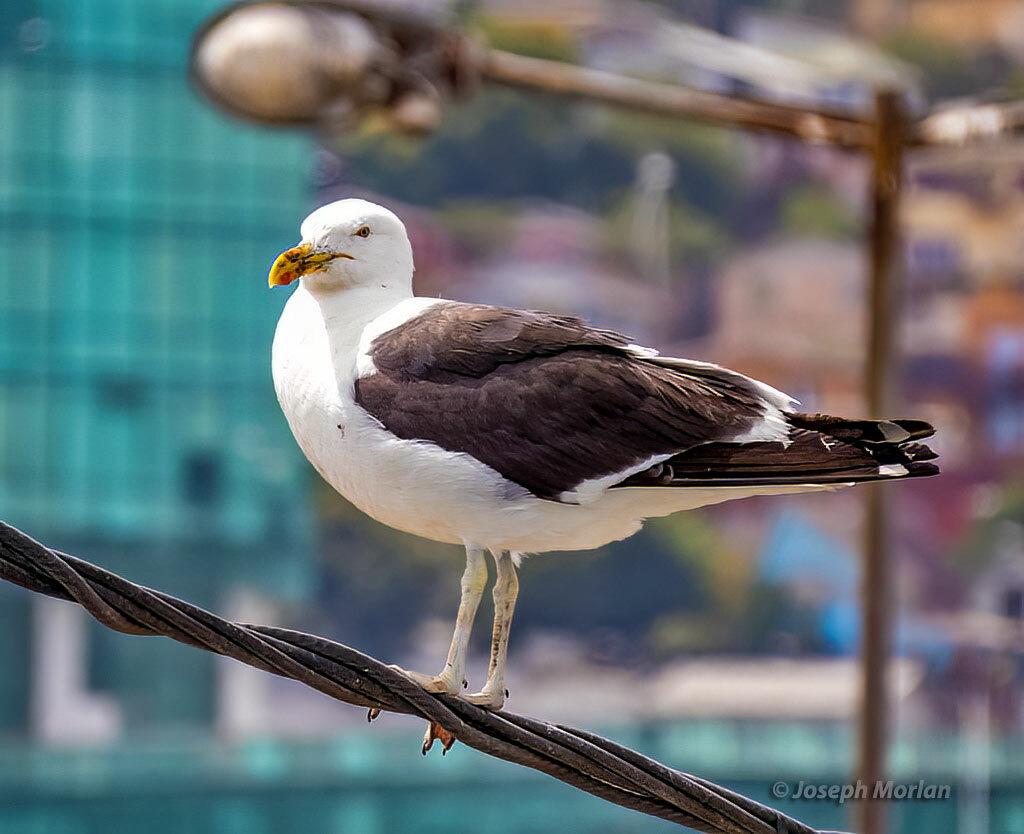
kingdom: Animalia
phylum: Chordata
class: Aves
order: Charadriiformes
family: Laridae
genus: Larus
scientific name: Larus dominicanus
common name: Kelp gull
